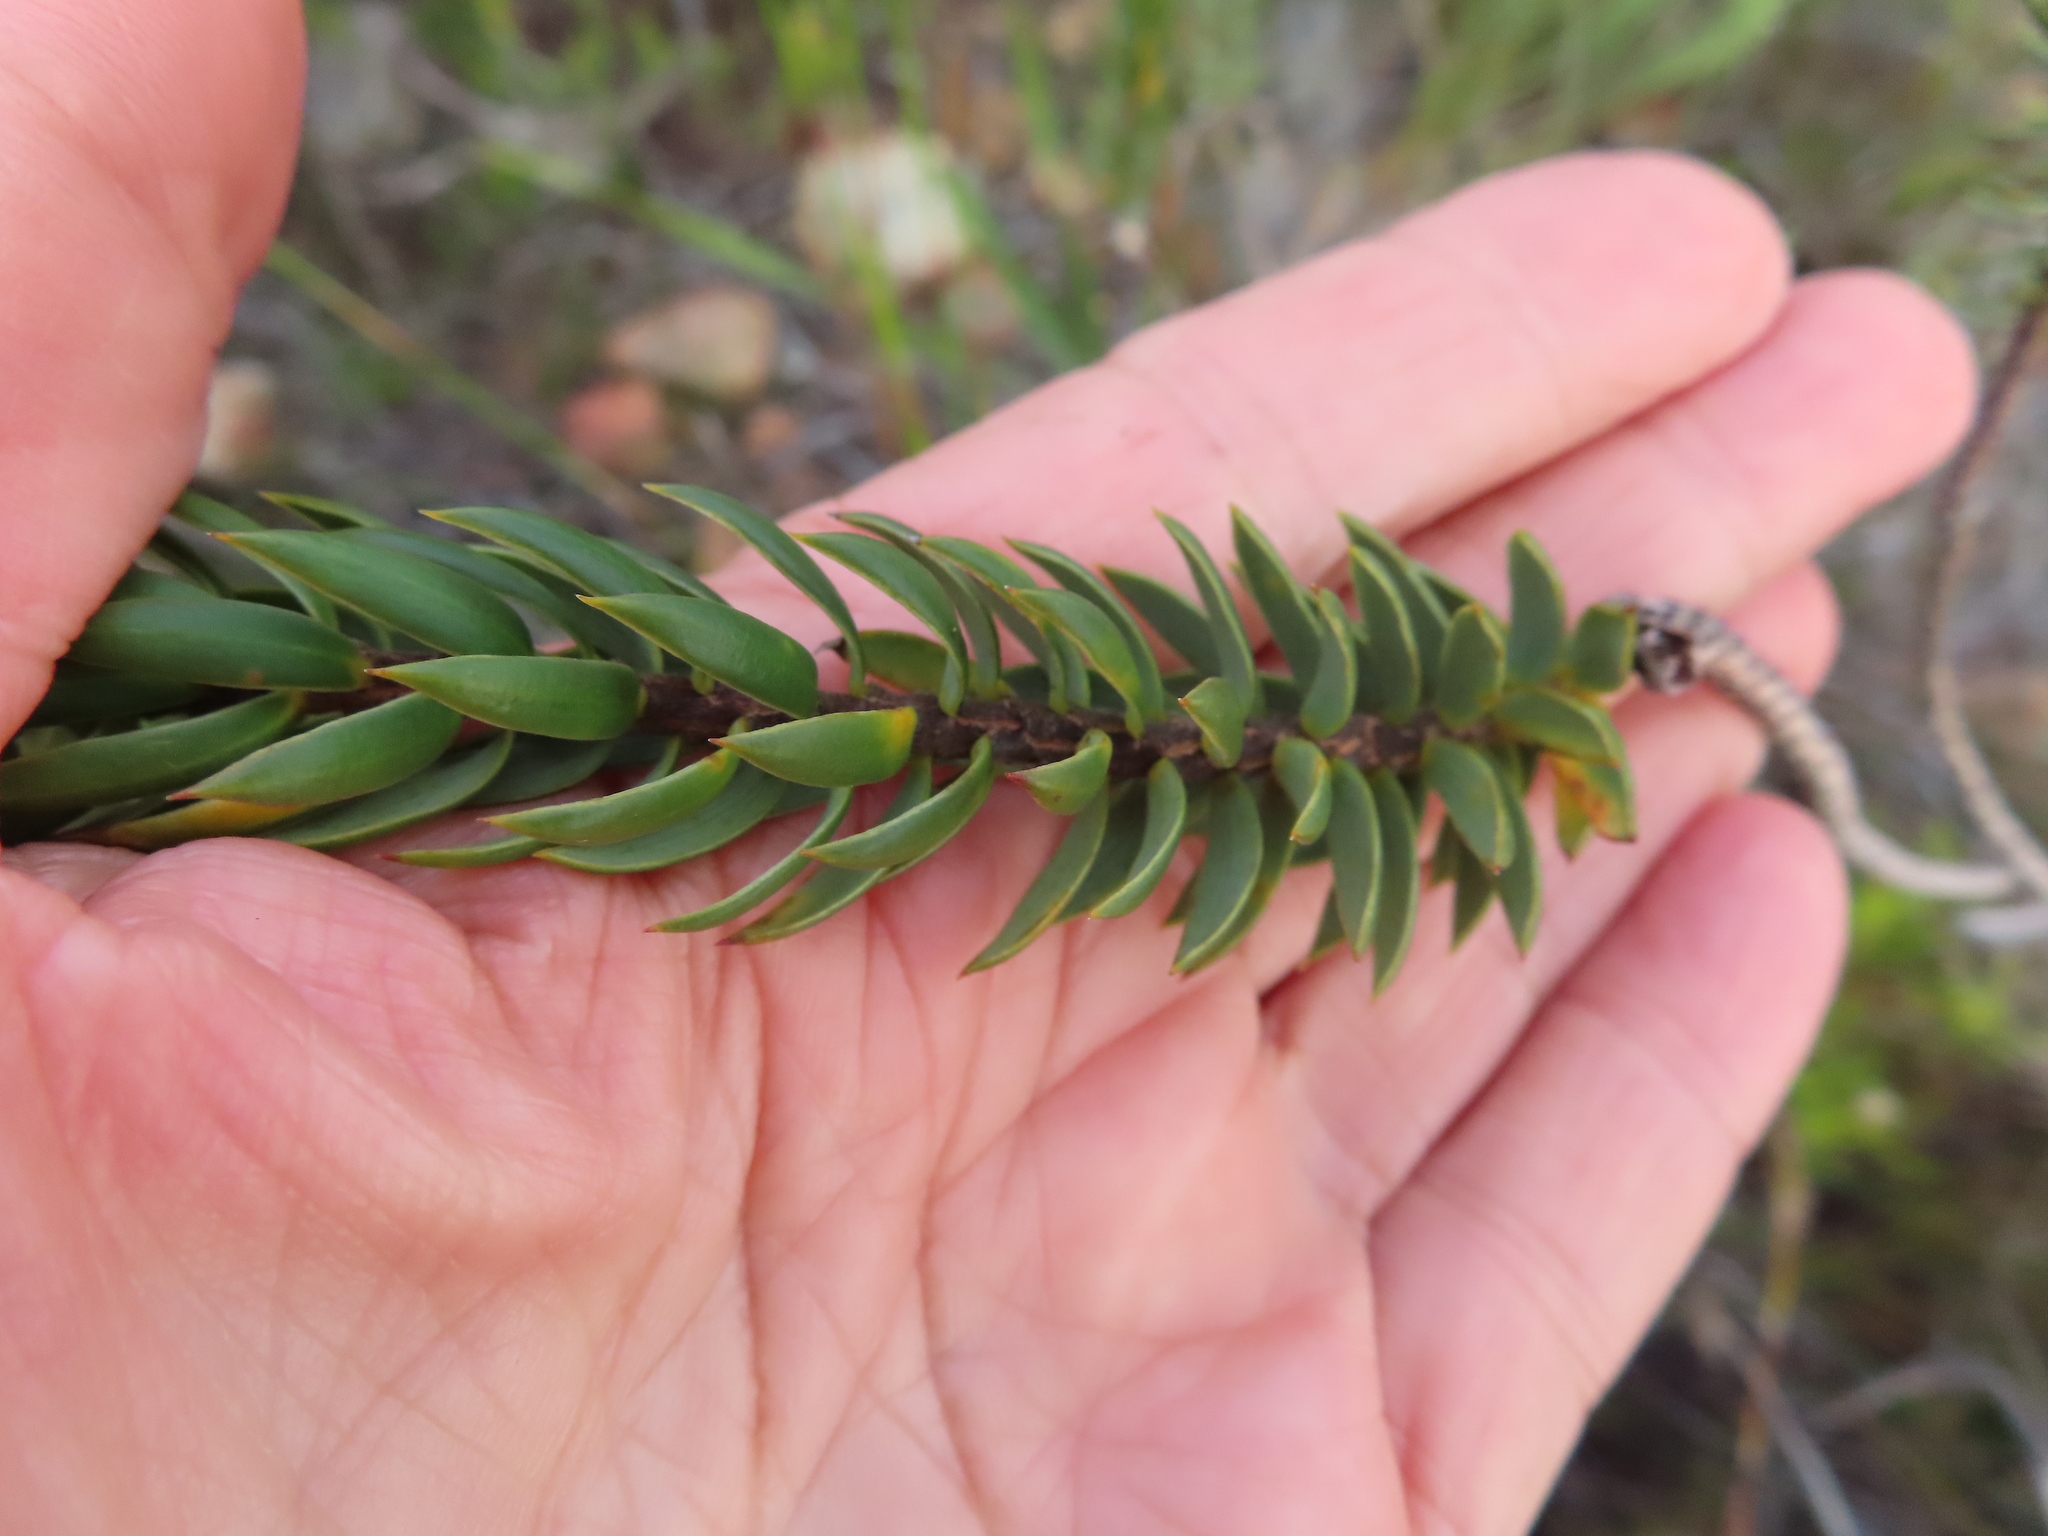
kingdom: Plantae
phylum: Tracheophyta
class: Magnoliopsida
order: Malvales
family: Thymelaeaceae
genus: Lachnaea
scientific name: Lachnaea aurea
